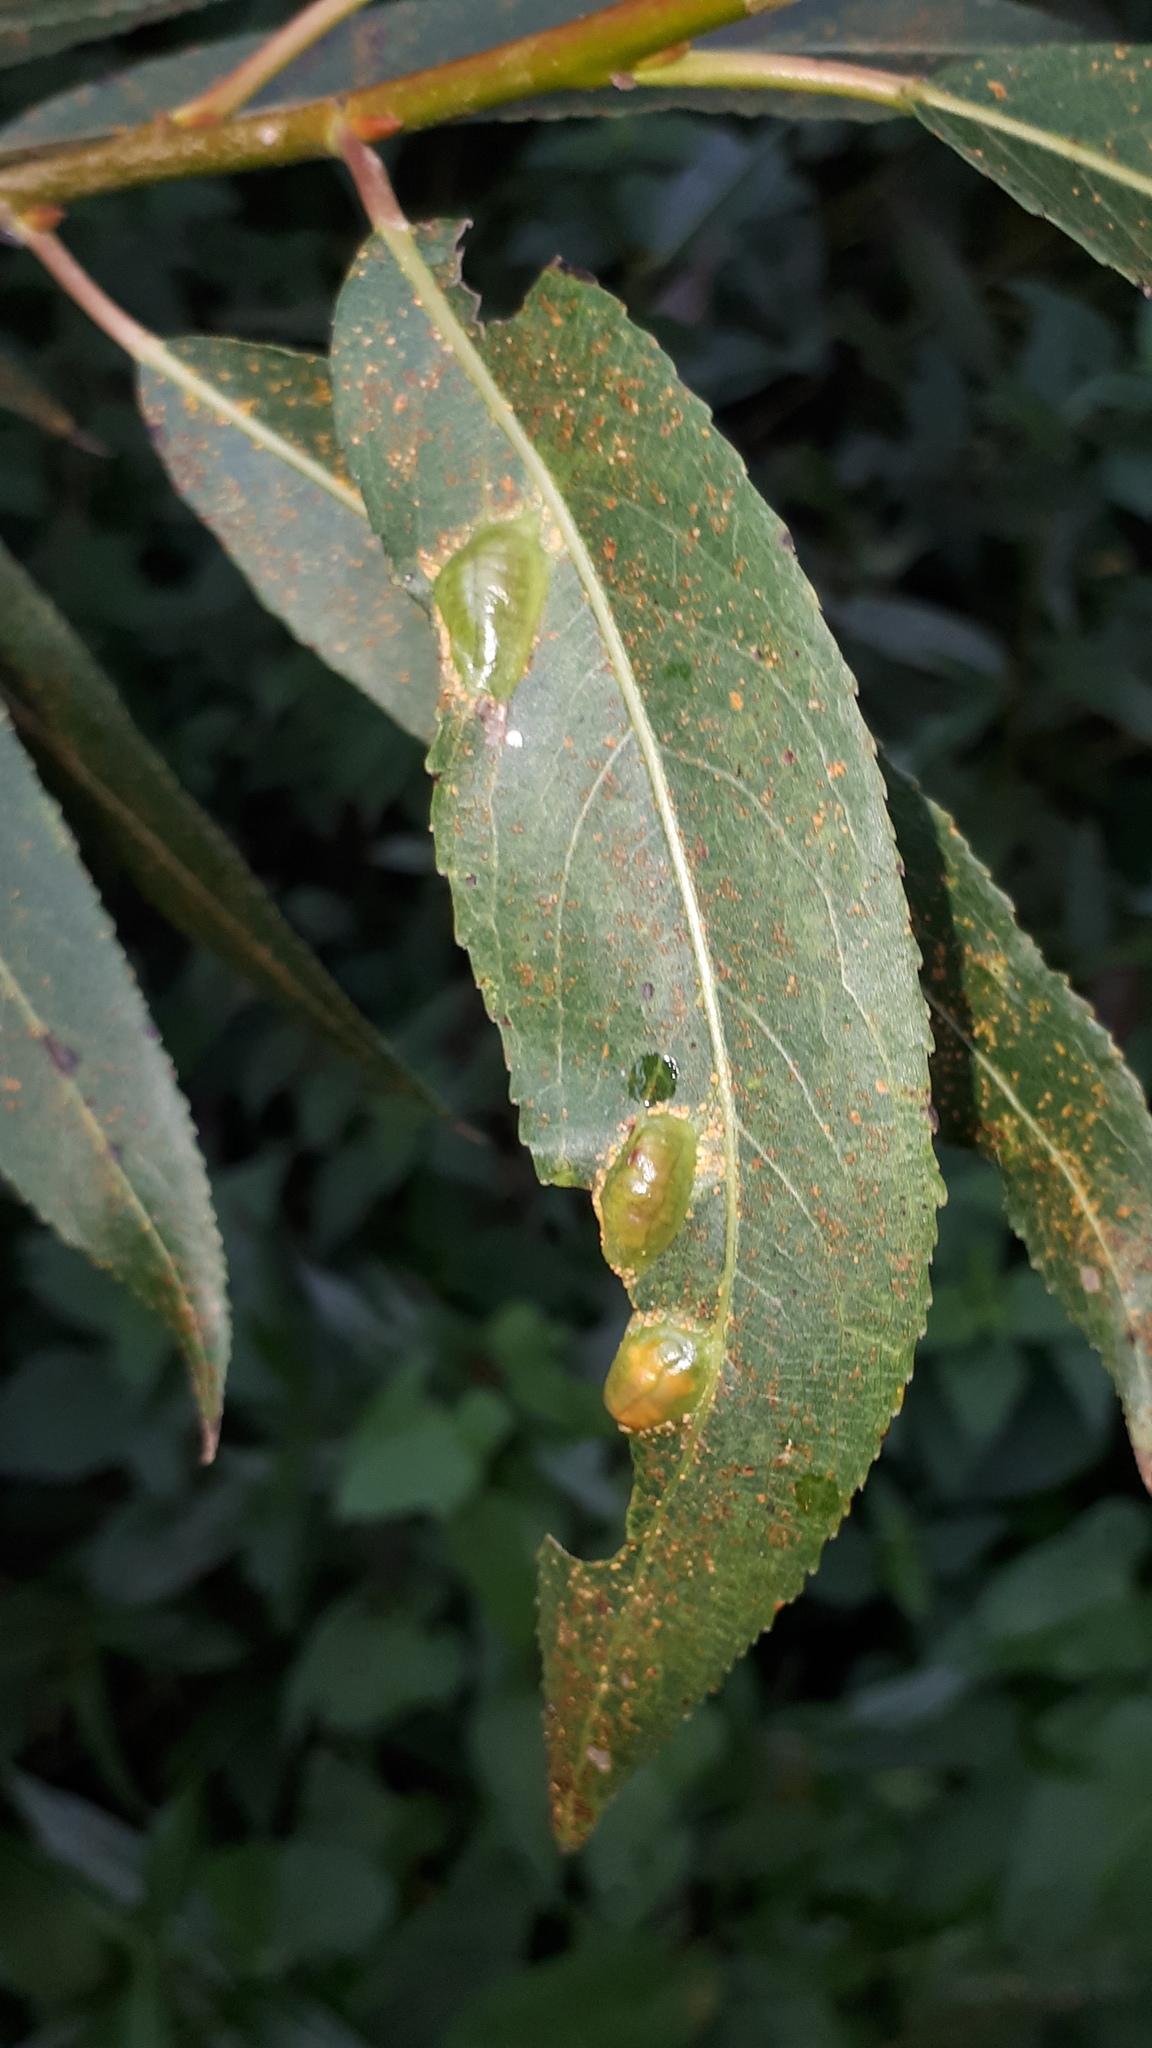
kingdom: Animalia
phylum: Arthropoda
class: Insecta
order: Hymenoptera
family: Tenthredinidae
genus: Pontania
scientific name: Pontania proxima
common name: Common sawfly
